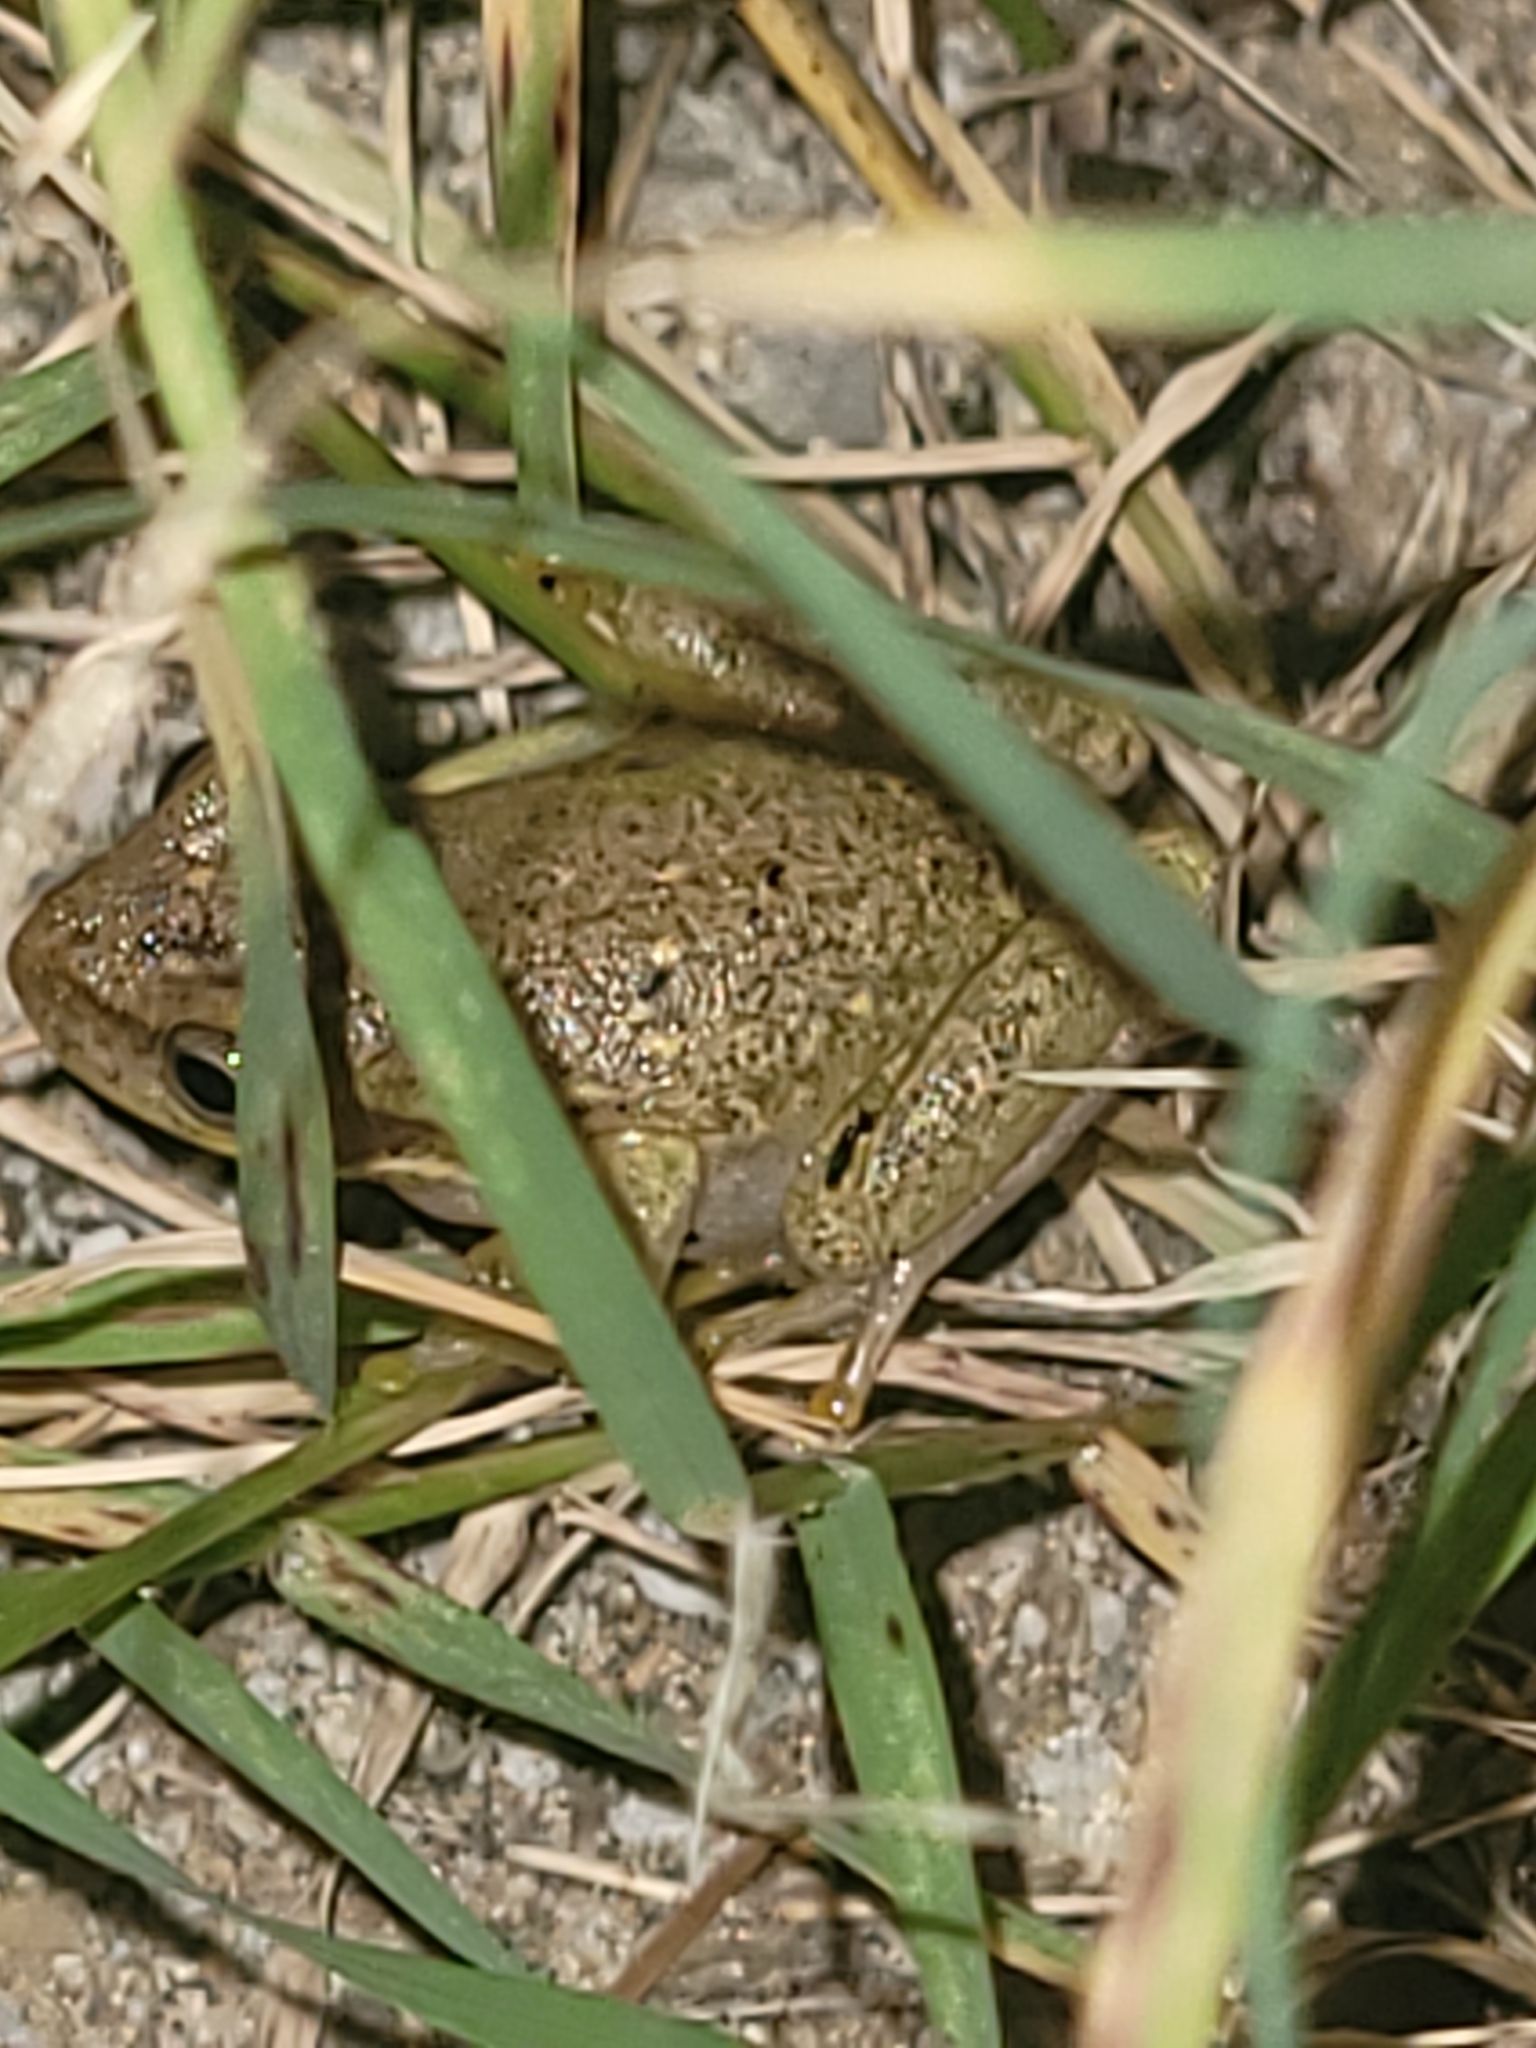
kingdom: Animalia
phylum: Chordata
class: Amphibia
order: Anura
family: Hylidae
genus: Dryophytes
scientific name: Dryophytes squirellus
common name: Squirrel treefrog
